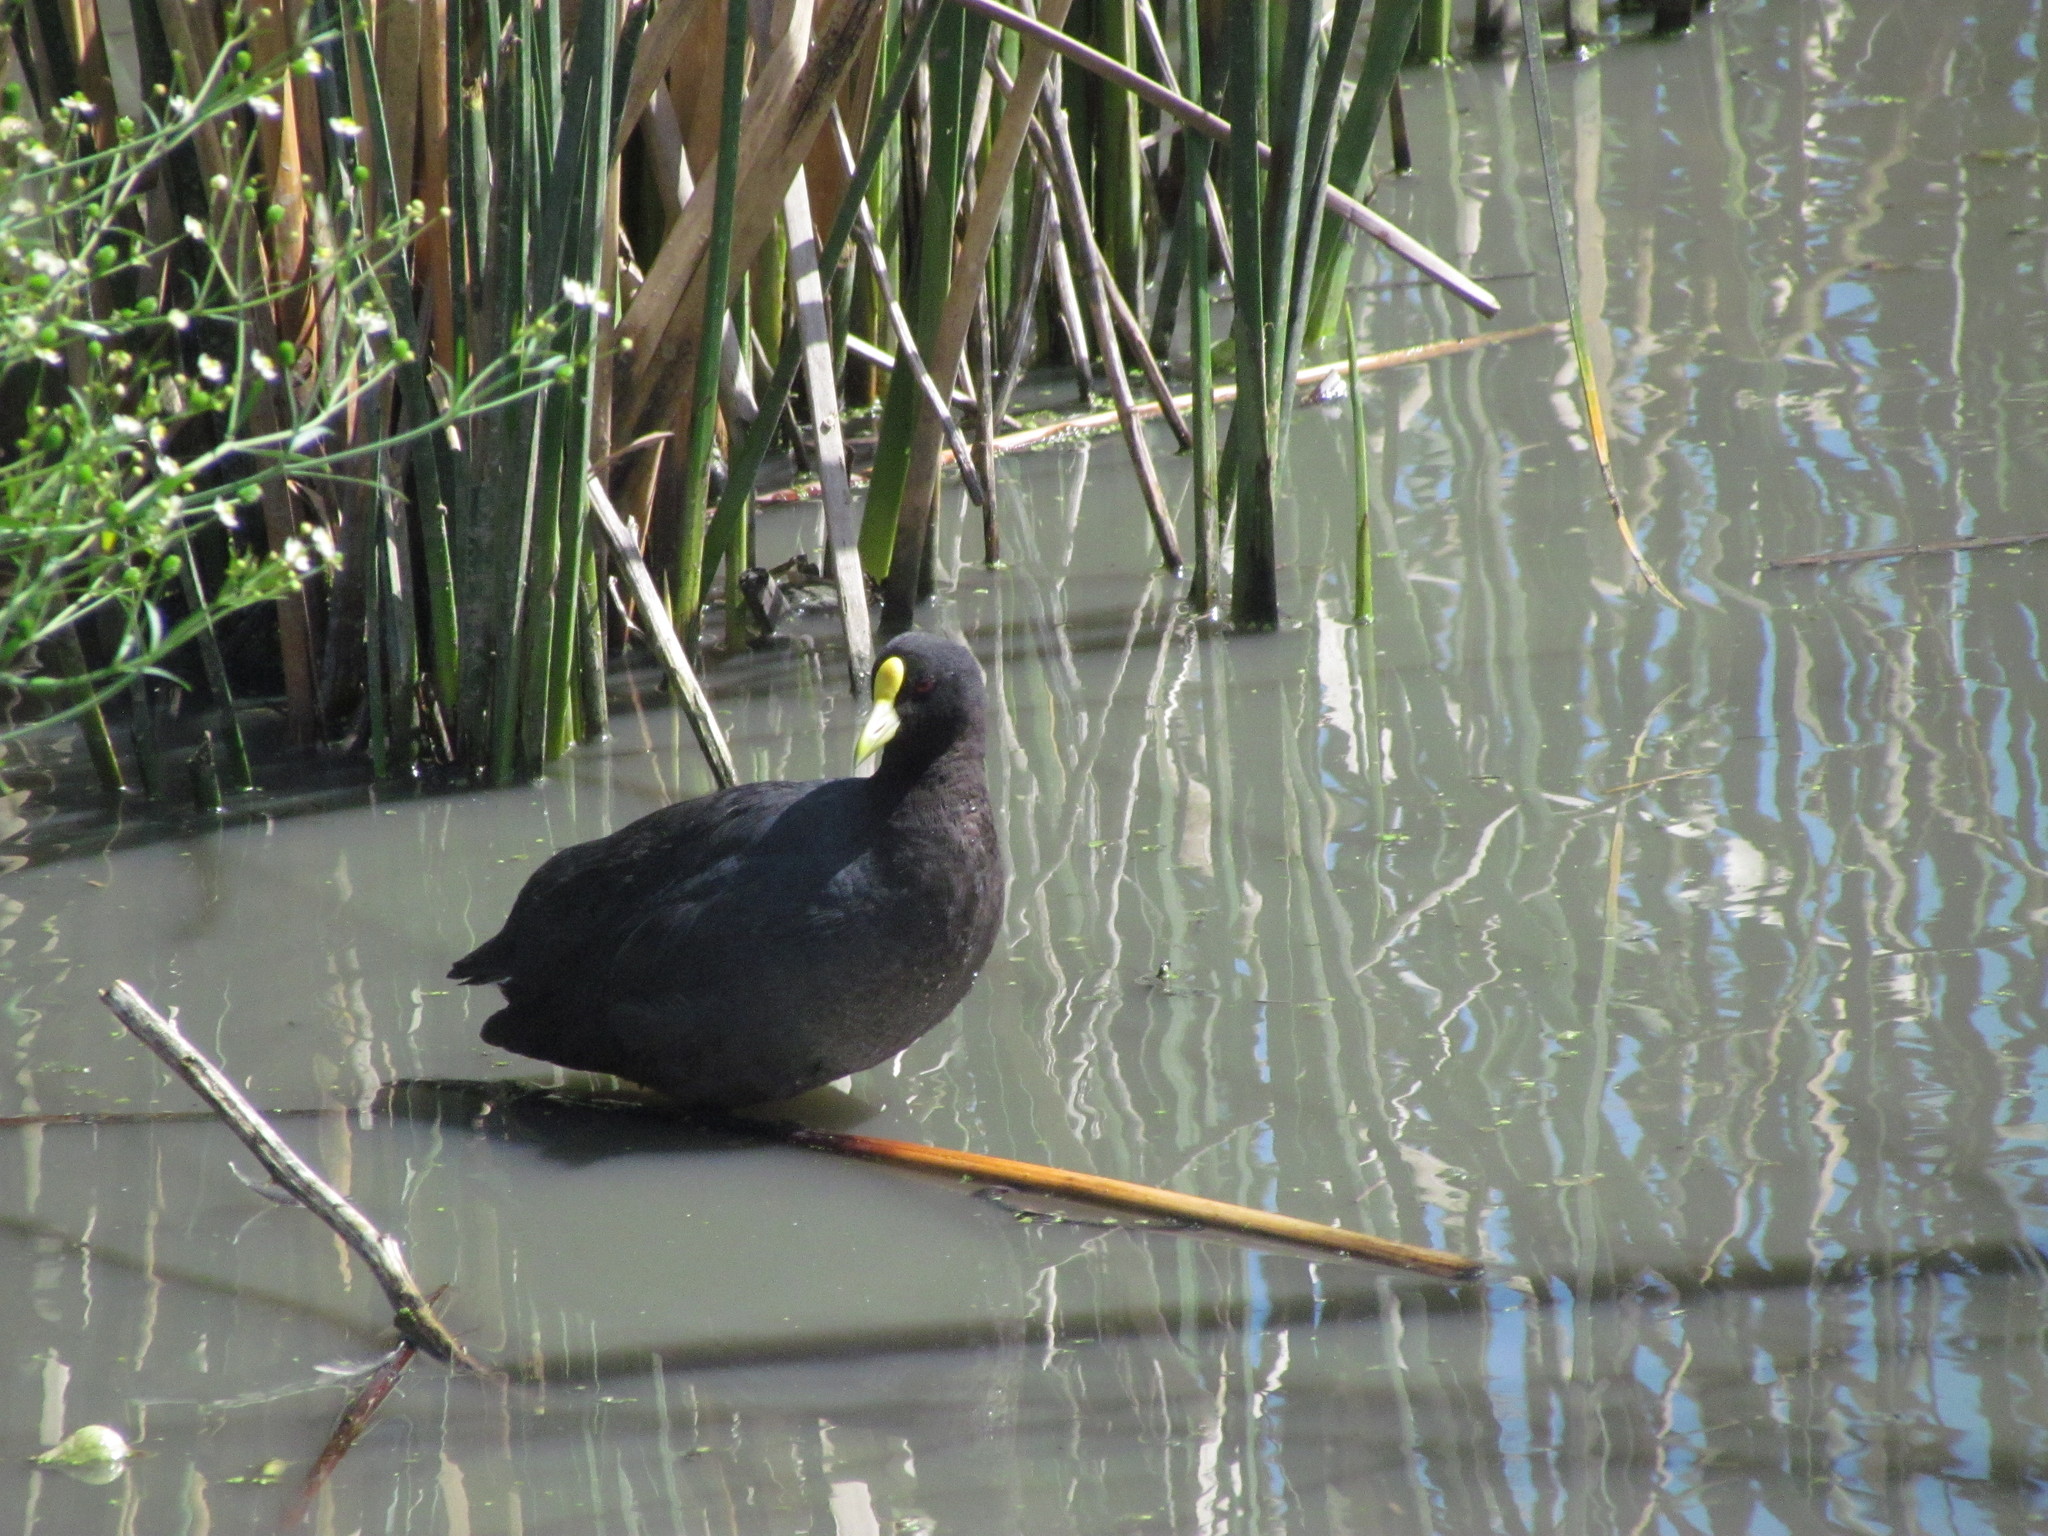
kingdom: Animalia
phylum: Chordata
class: Aves
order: Gruiformes
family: Rallidae
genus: Fulica
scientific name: Fulica leucoptera
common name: White-winged coot
